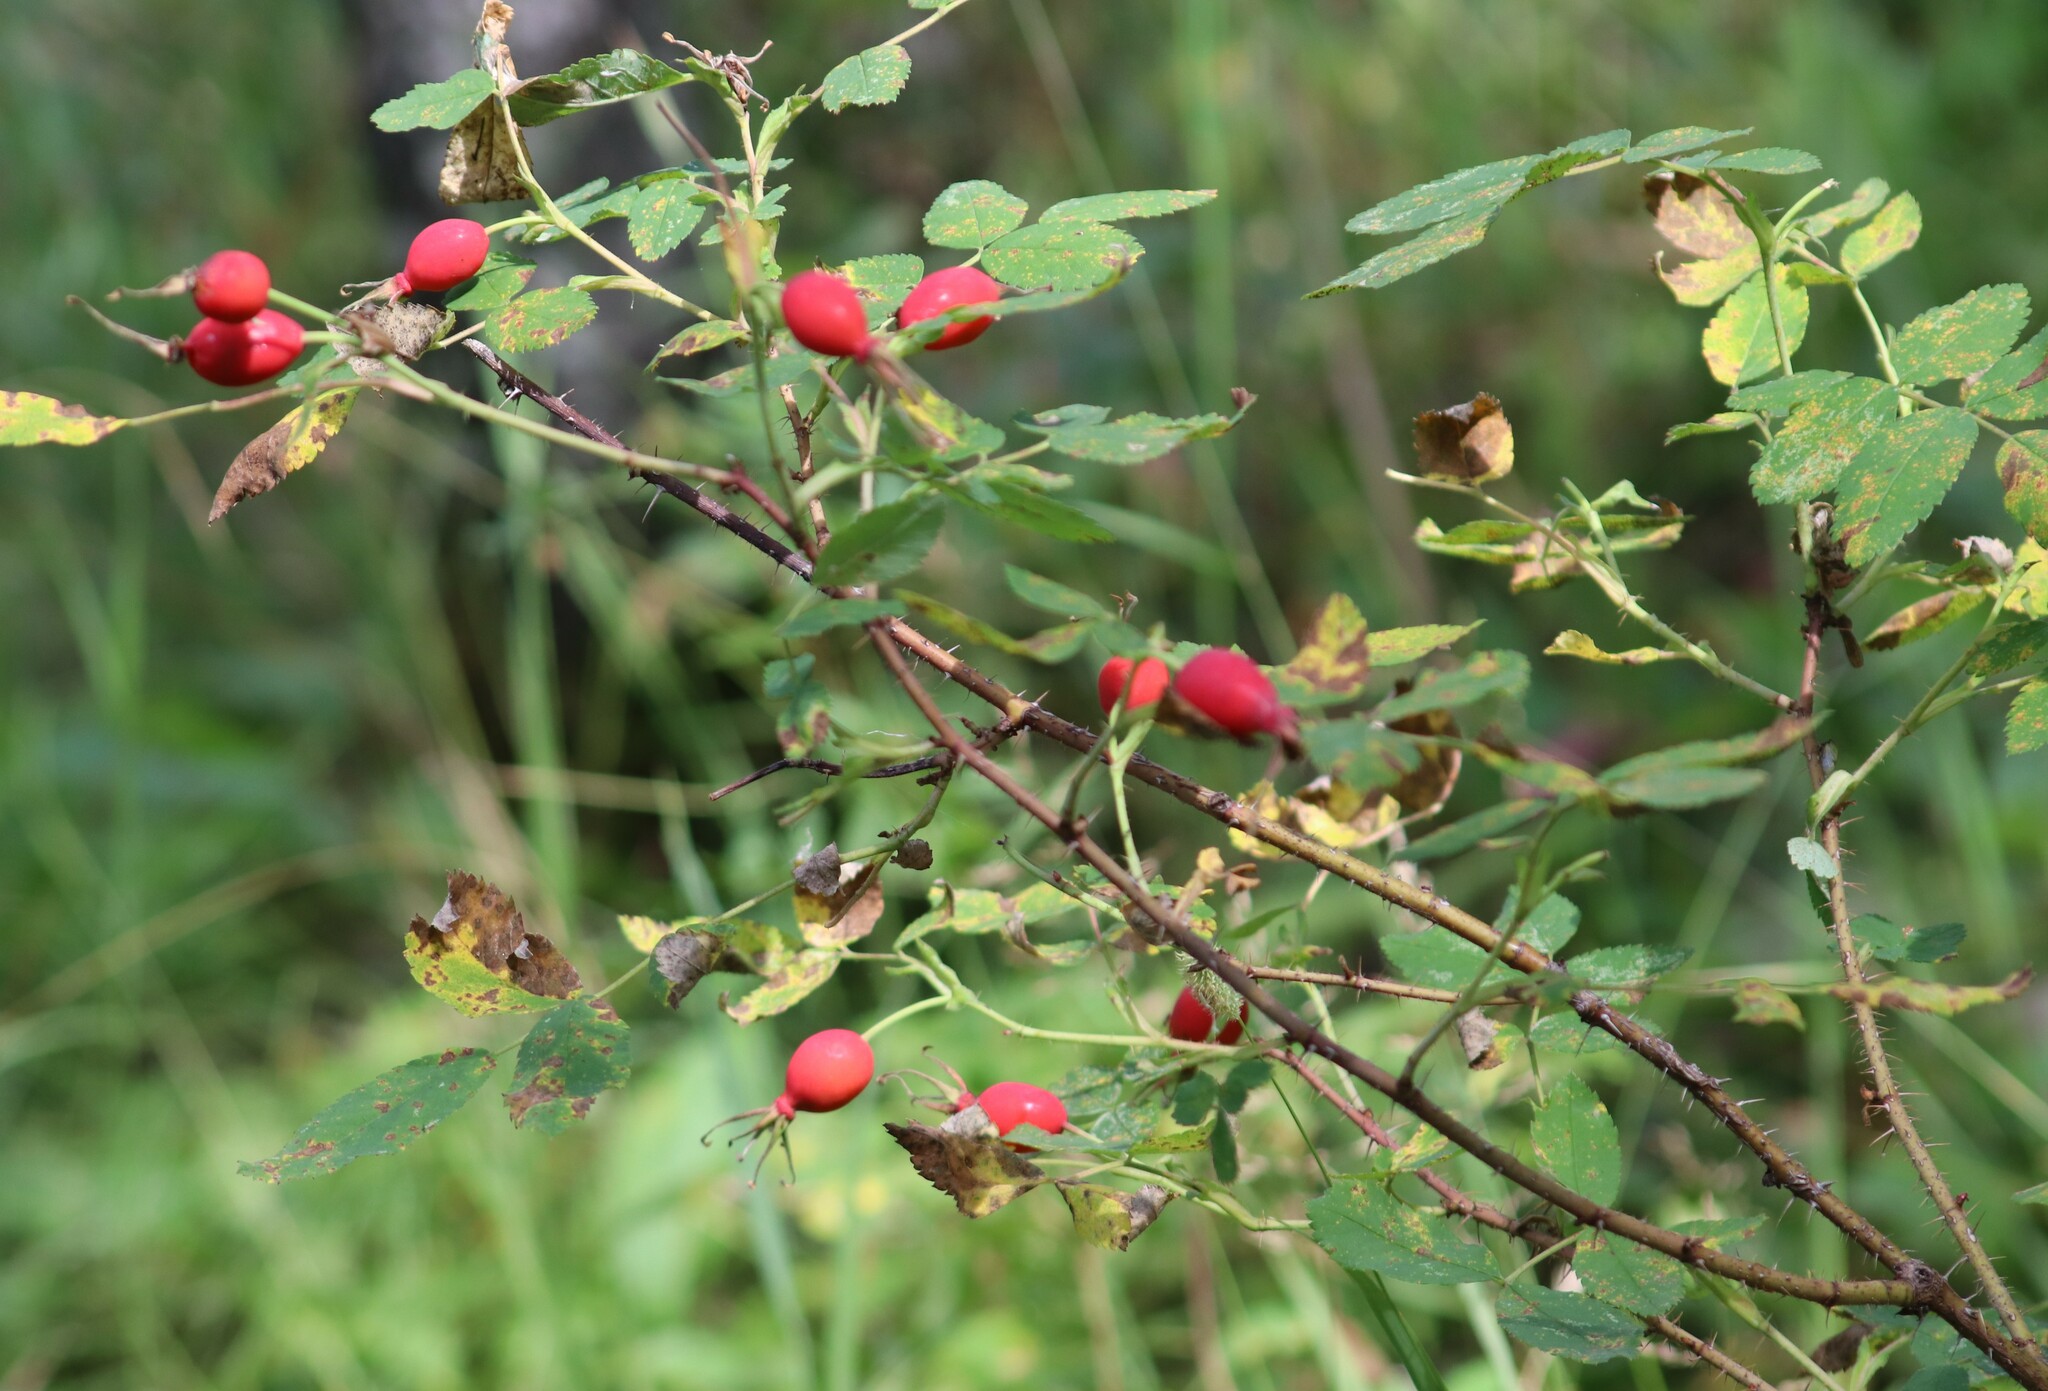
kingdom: Plantae
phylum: Tracheophyta
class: Magnoliopsida
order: Rosales
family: Rosaceae
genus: Rosa
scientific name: Rosa acicularis
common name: Prickly rose
